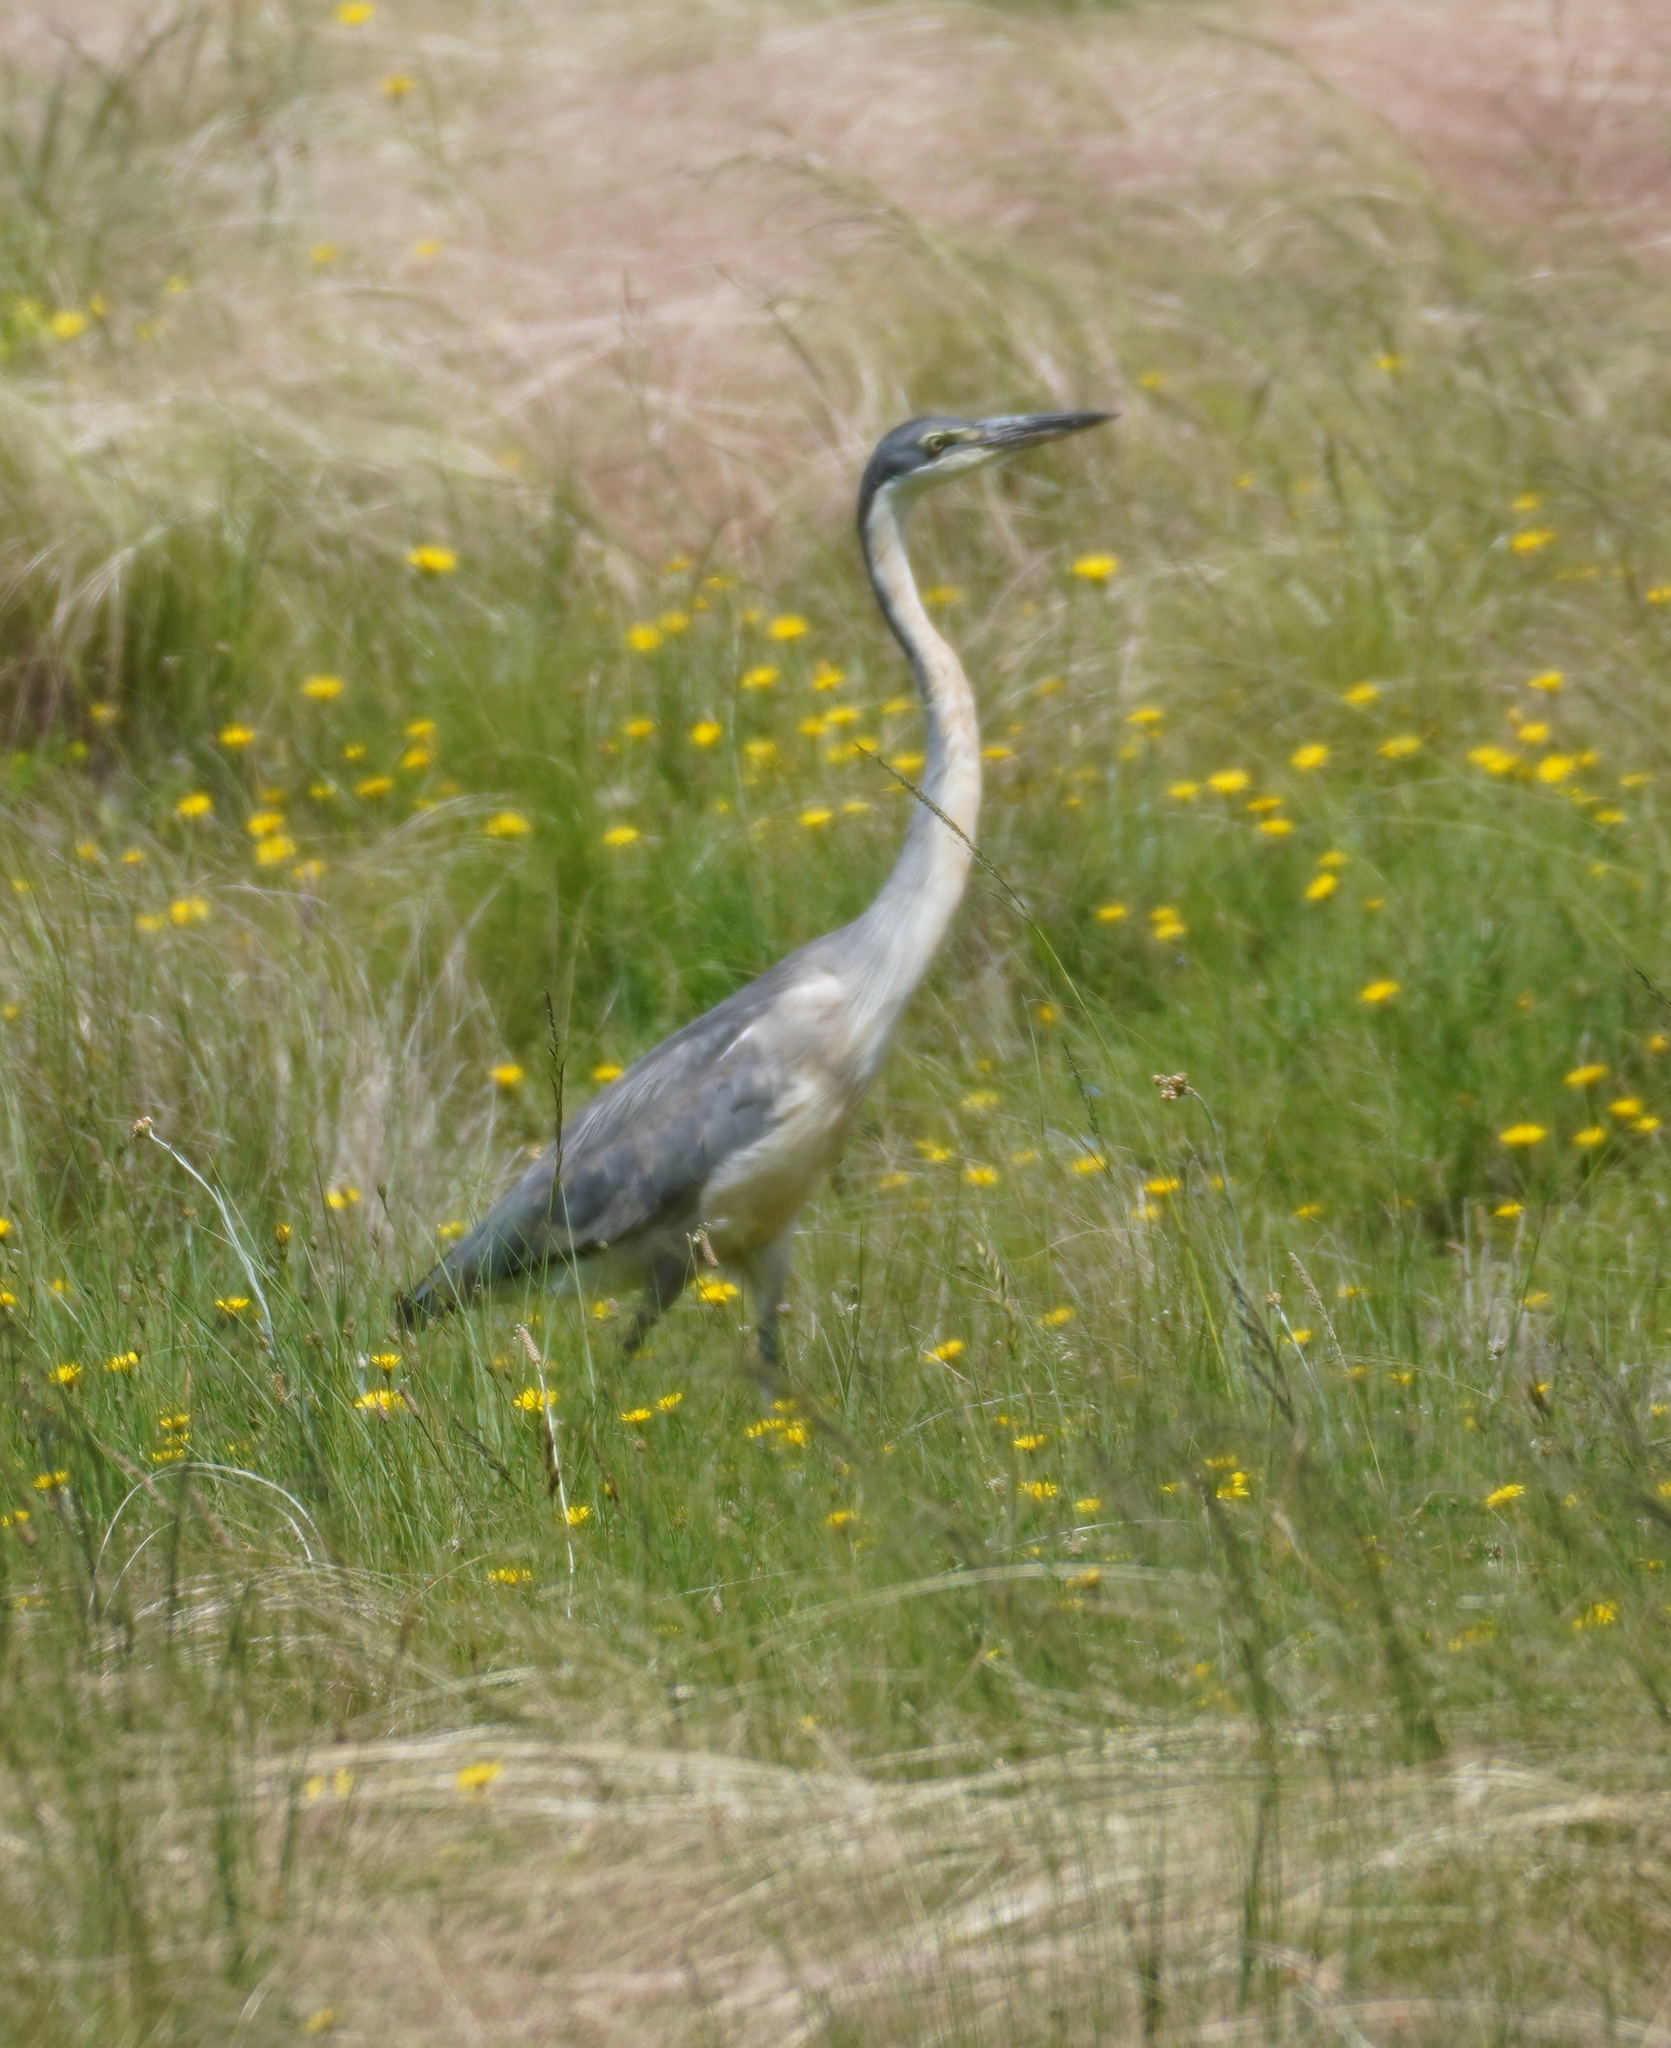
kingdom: Animalia
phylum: Chordata
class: Aves
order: Pelecaniformes
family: Ardeidae
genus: Ardea
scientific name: Ardea melanocephala
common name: Black-headed heron
